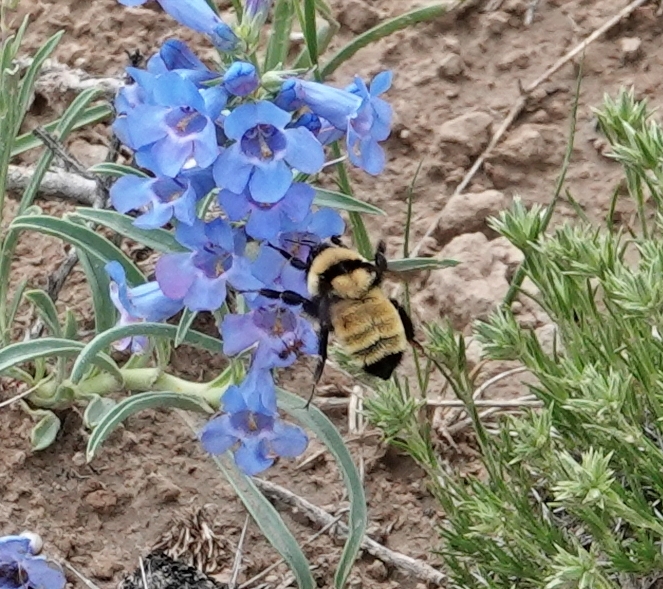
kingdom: Animalia
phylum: Arthropoda
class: Insecta
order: Hymenoptera
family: Apidae
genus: Bombus
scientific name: Bombus fervidus
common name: Yellow bumble bee
